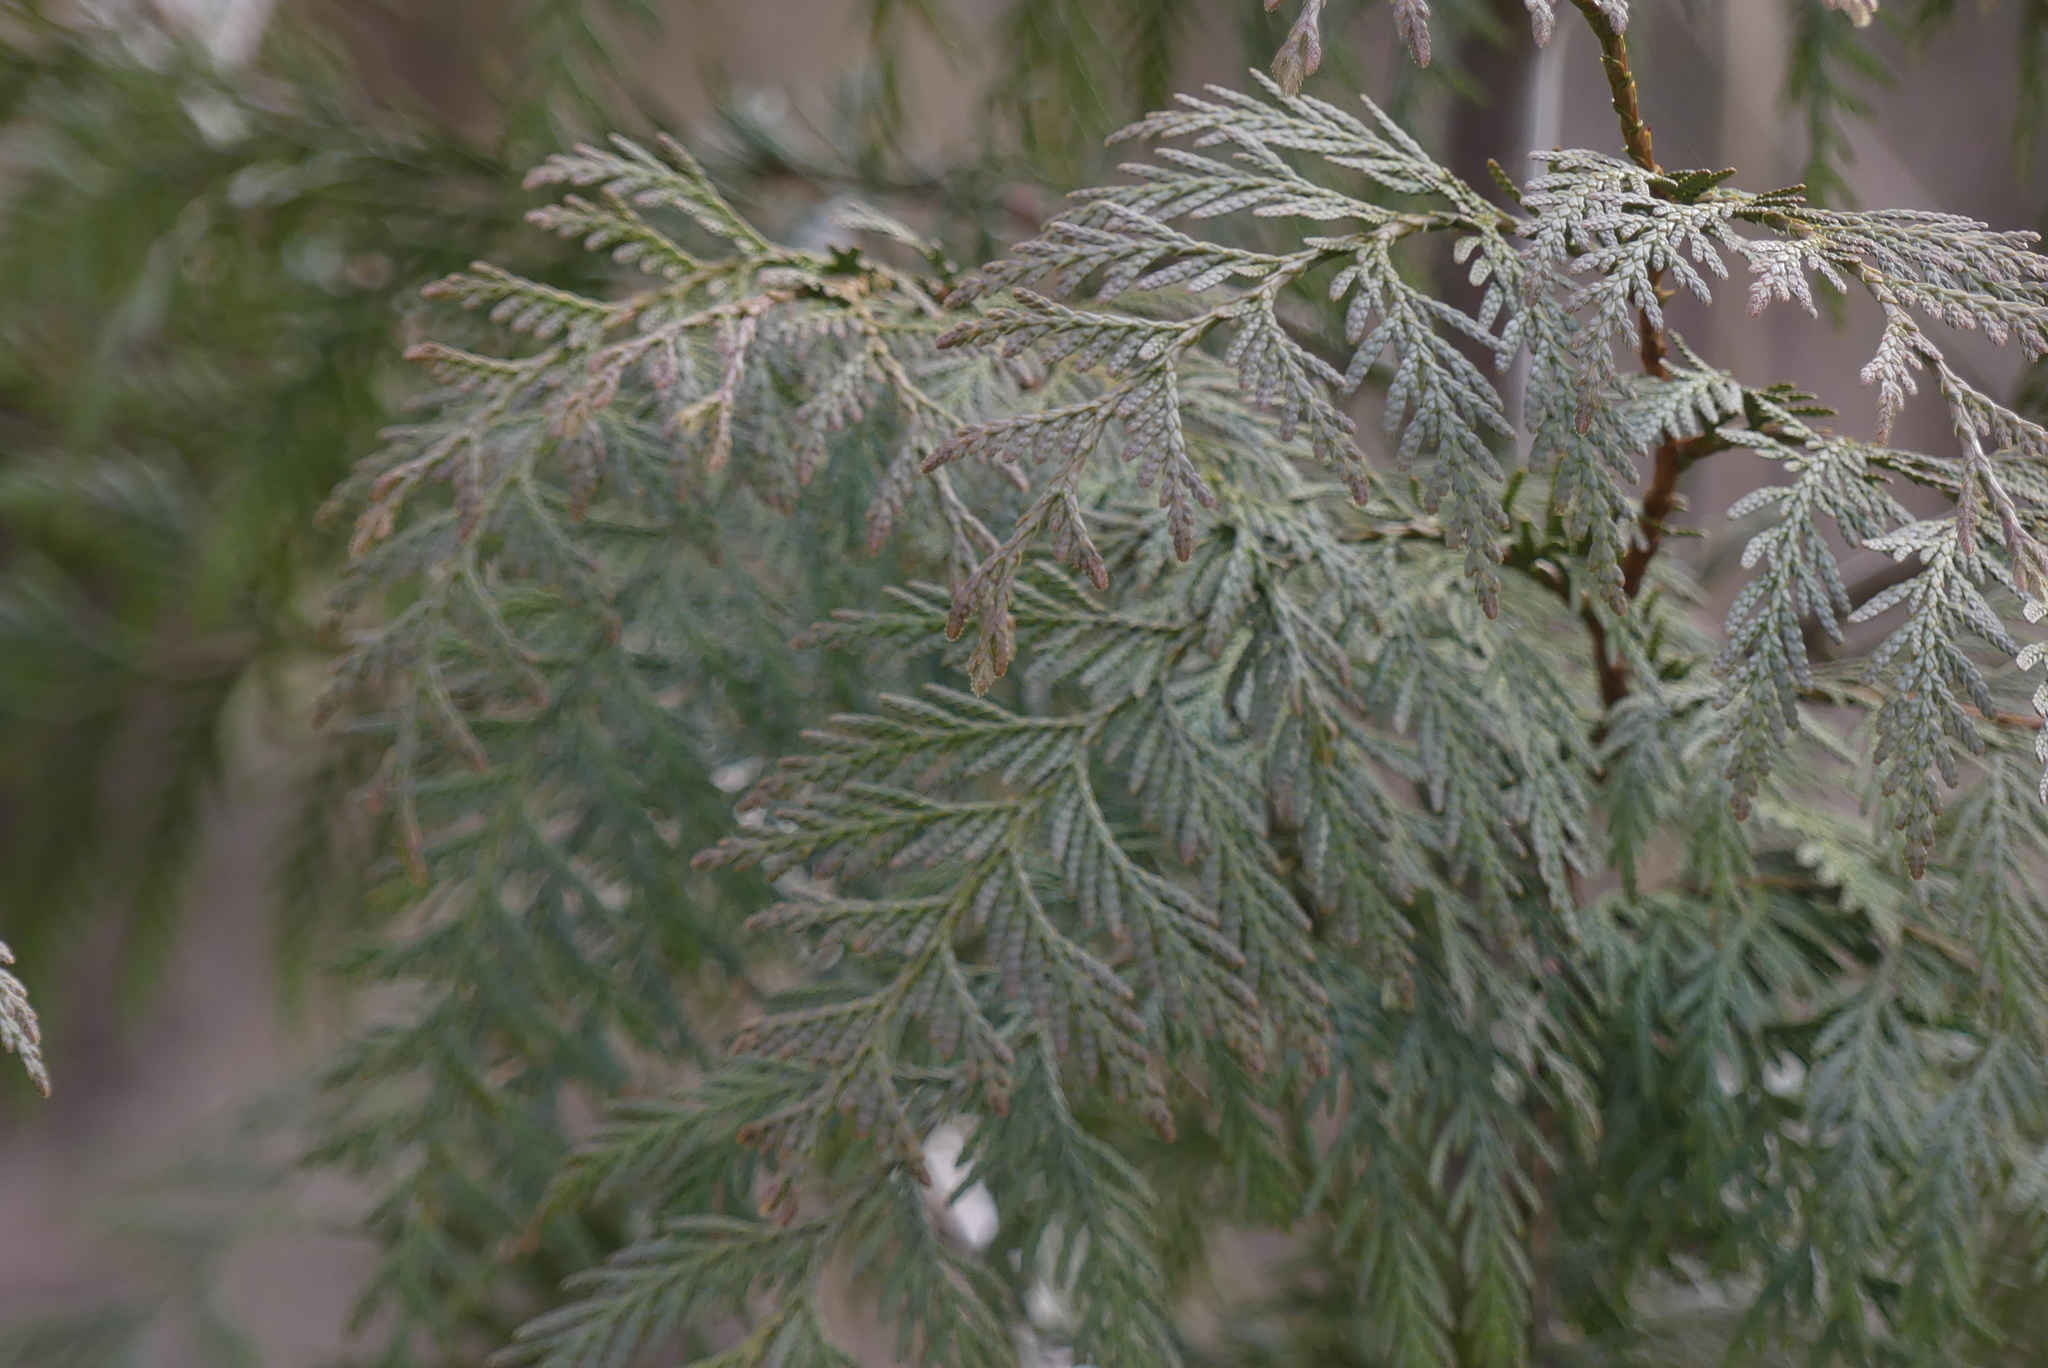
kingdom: Plantae
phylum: Tracheophyta
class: Pinopsida
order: Pinales
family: Cupressaceae
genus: Thuja
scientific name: Thuja plicata
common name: Western red-cedar
